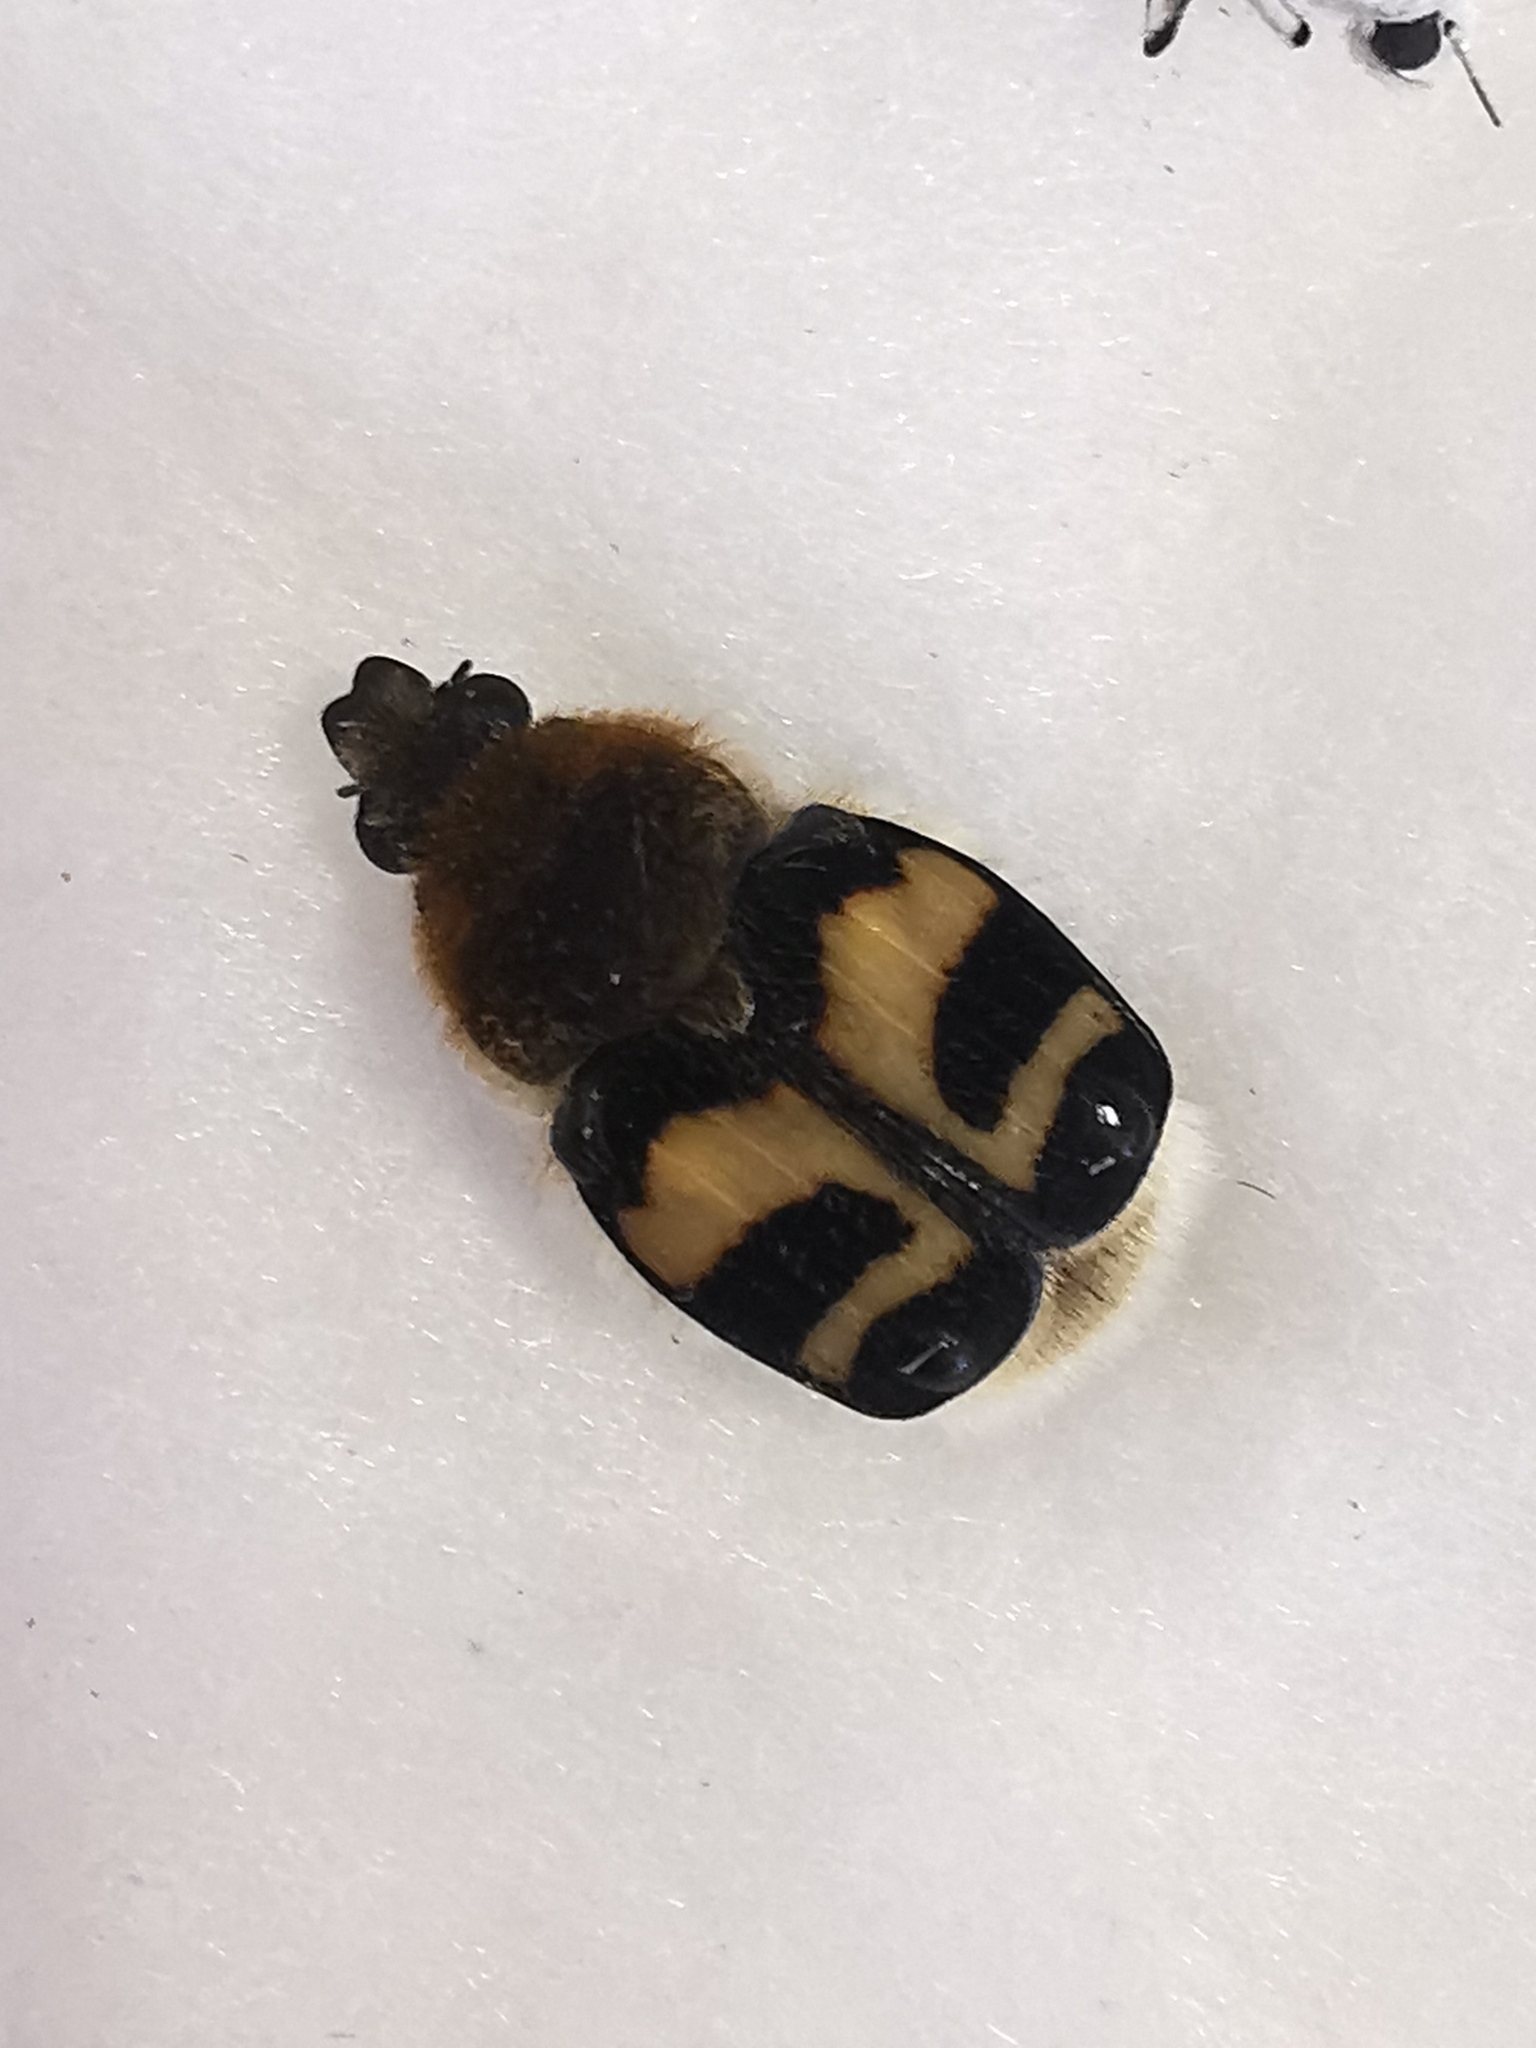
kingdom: Animalia
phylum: Arthropoda
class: Insecta
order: Coleoptera
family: Scarabaeidae
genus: Trichius
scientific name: Trichius fasciatus
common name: Bee beetle
